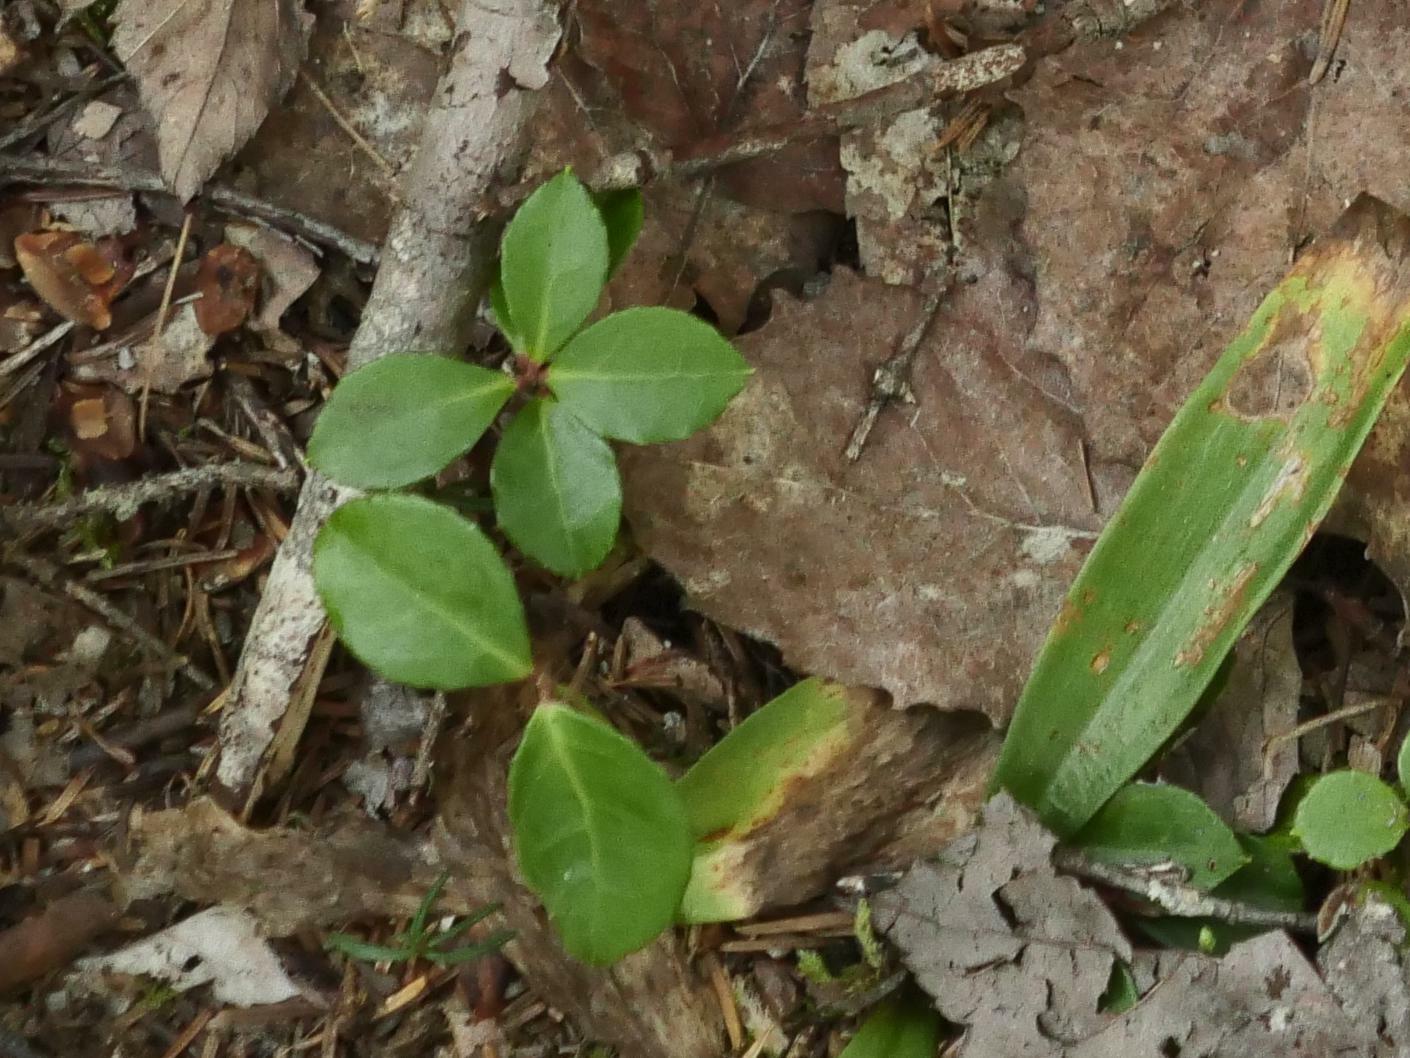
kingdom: Plantae
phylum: Tracheophyta
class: Magnoliopsida
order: Ericales
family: Ericaceae
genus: Gaultheria
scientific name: Gaultheria procumbens
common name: Checkerberry
